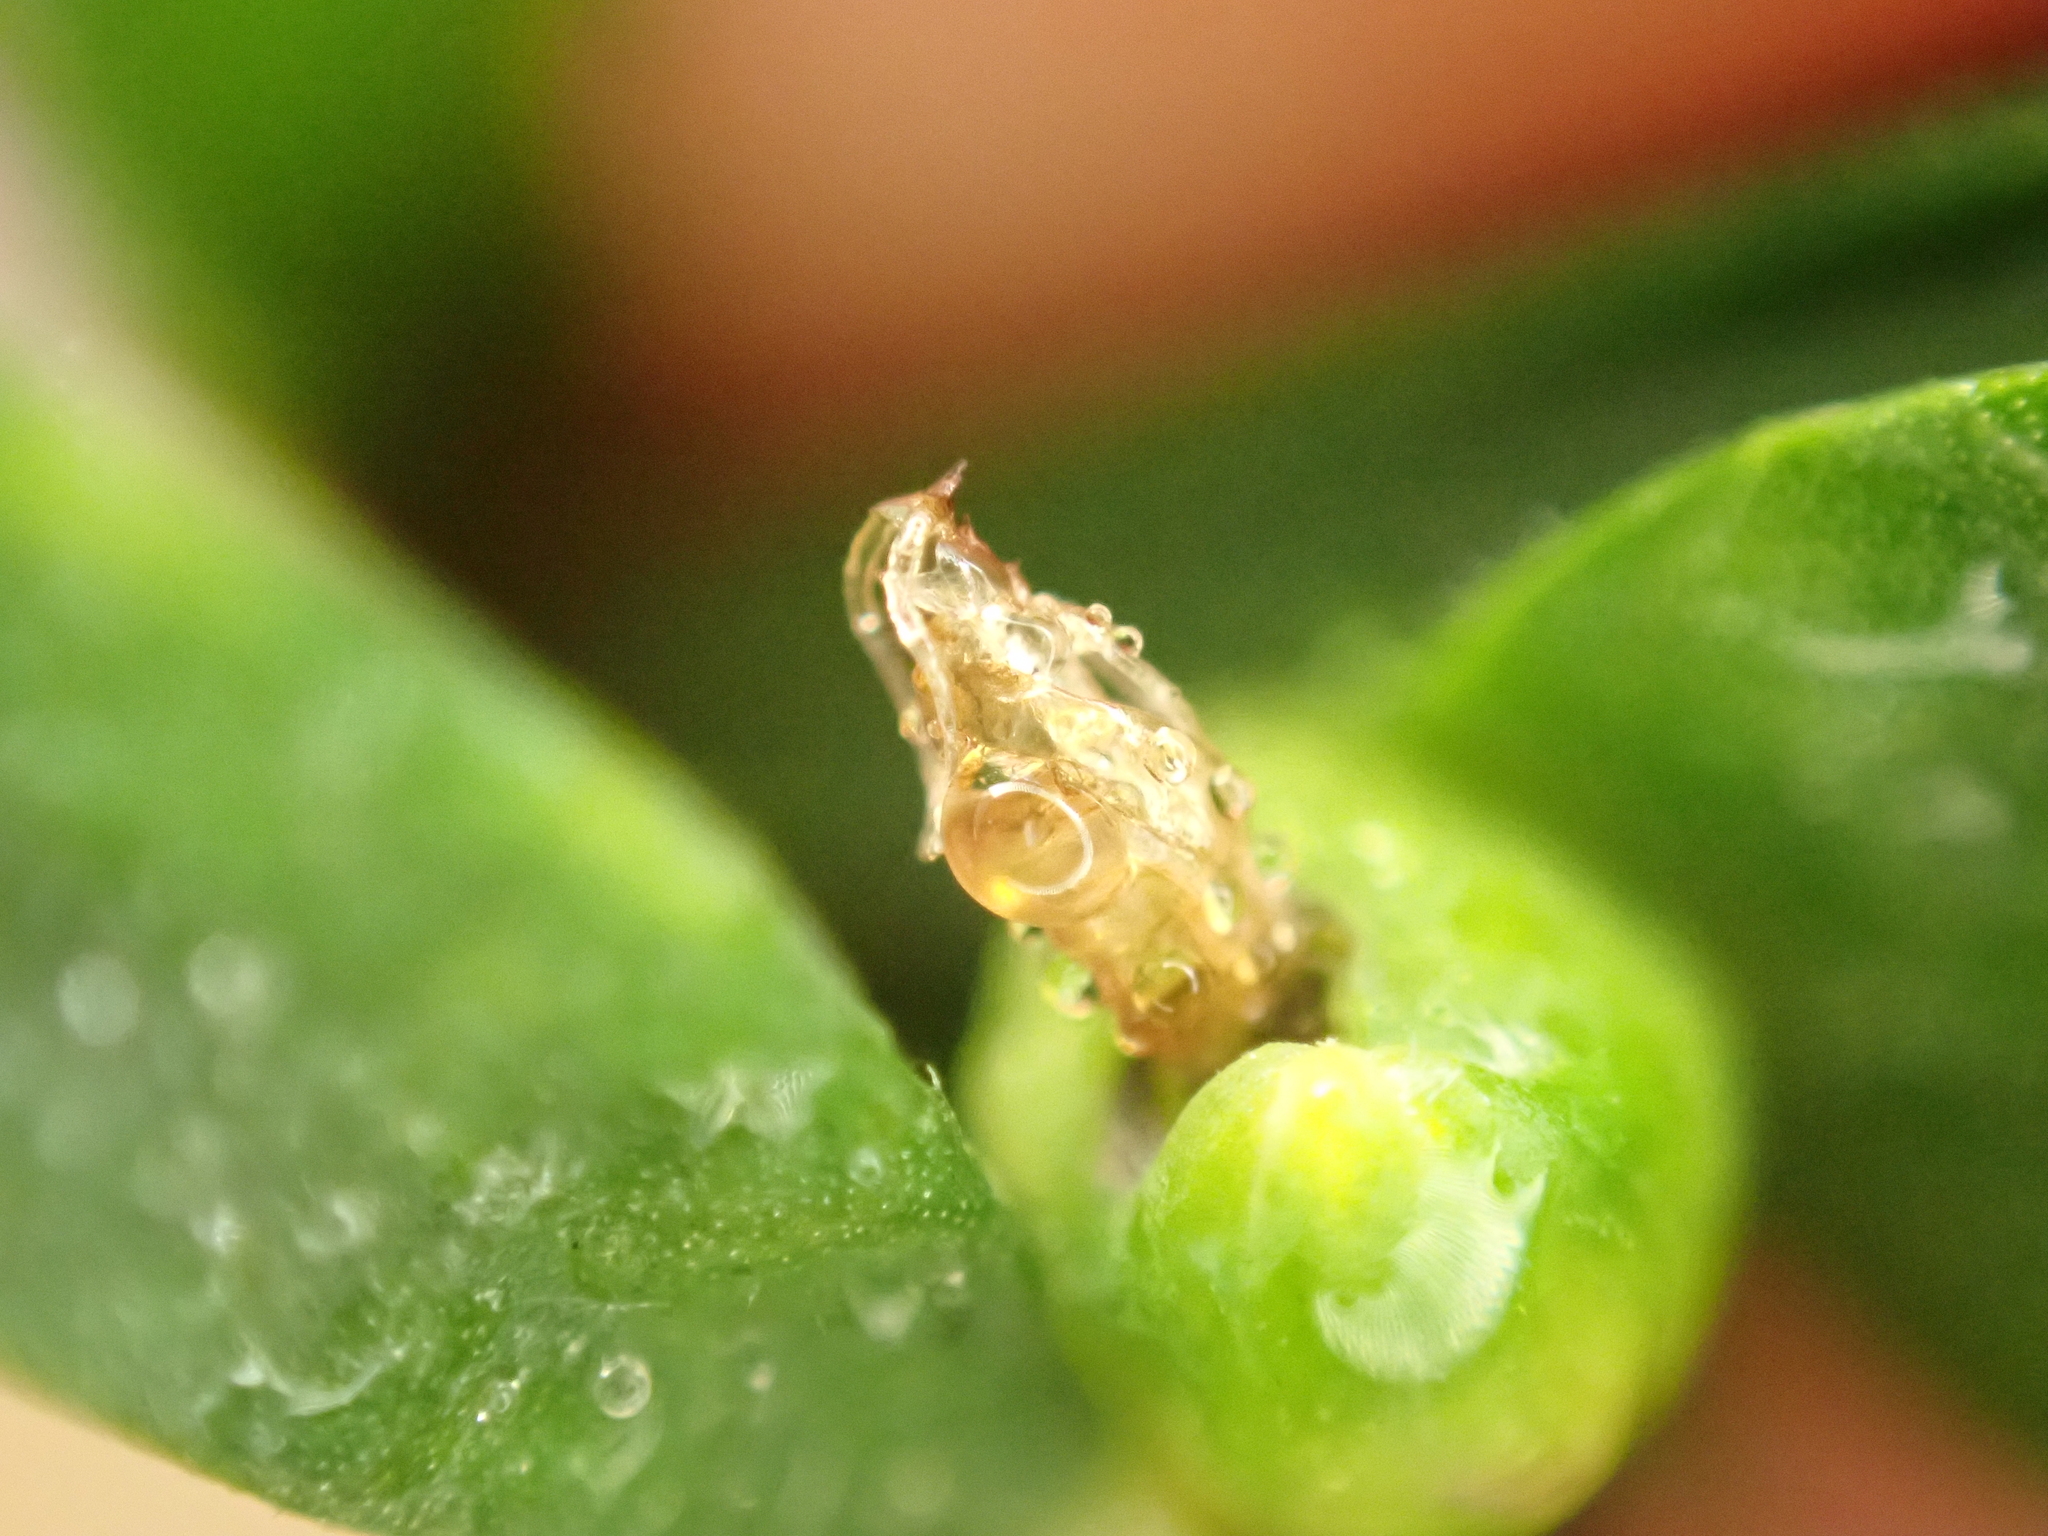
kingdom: Animalia
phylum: Arthropoda
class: Insecta
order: Diptera
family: Cecidomyiidae
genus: Asphondylia
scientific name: Asphondylia sarothamni
